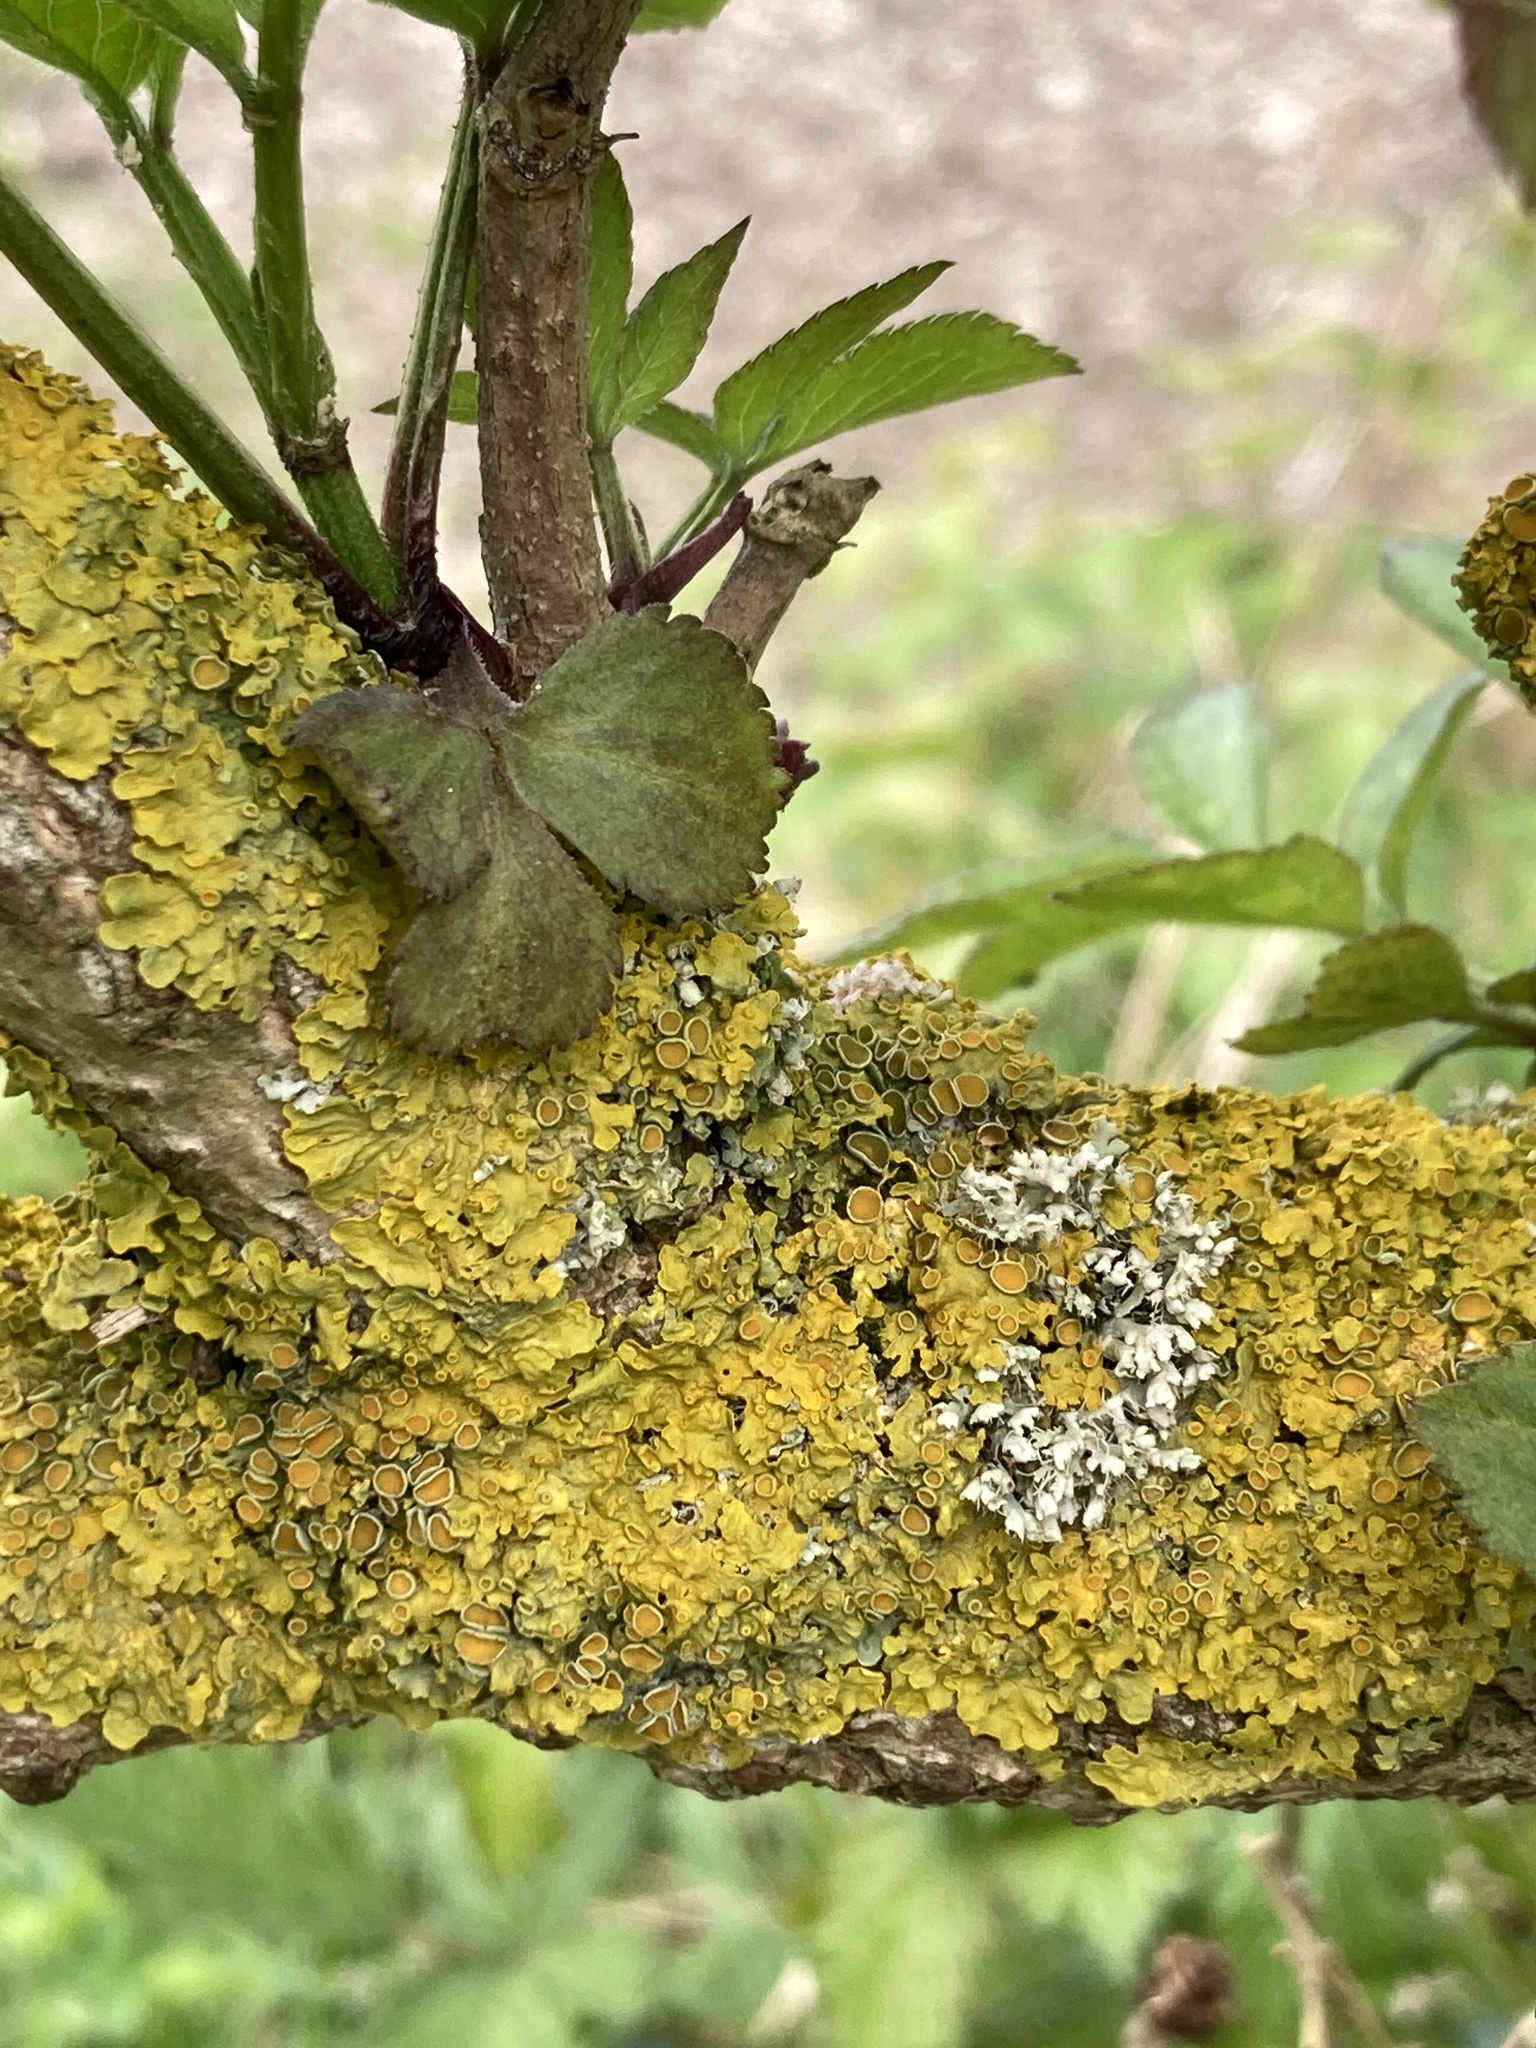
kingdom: Fungi
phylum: Ascomycota
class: Lecanoromycetes
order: Teloschistales
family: Teloschistaceae
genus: Xanthoria
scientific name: Xanthoria parietina
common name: Common orange lichen
